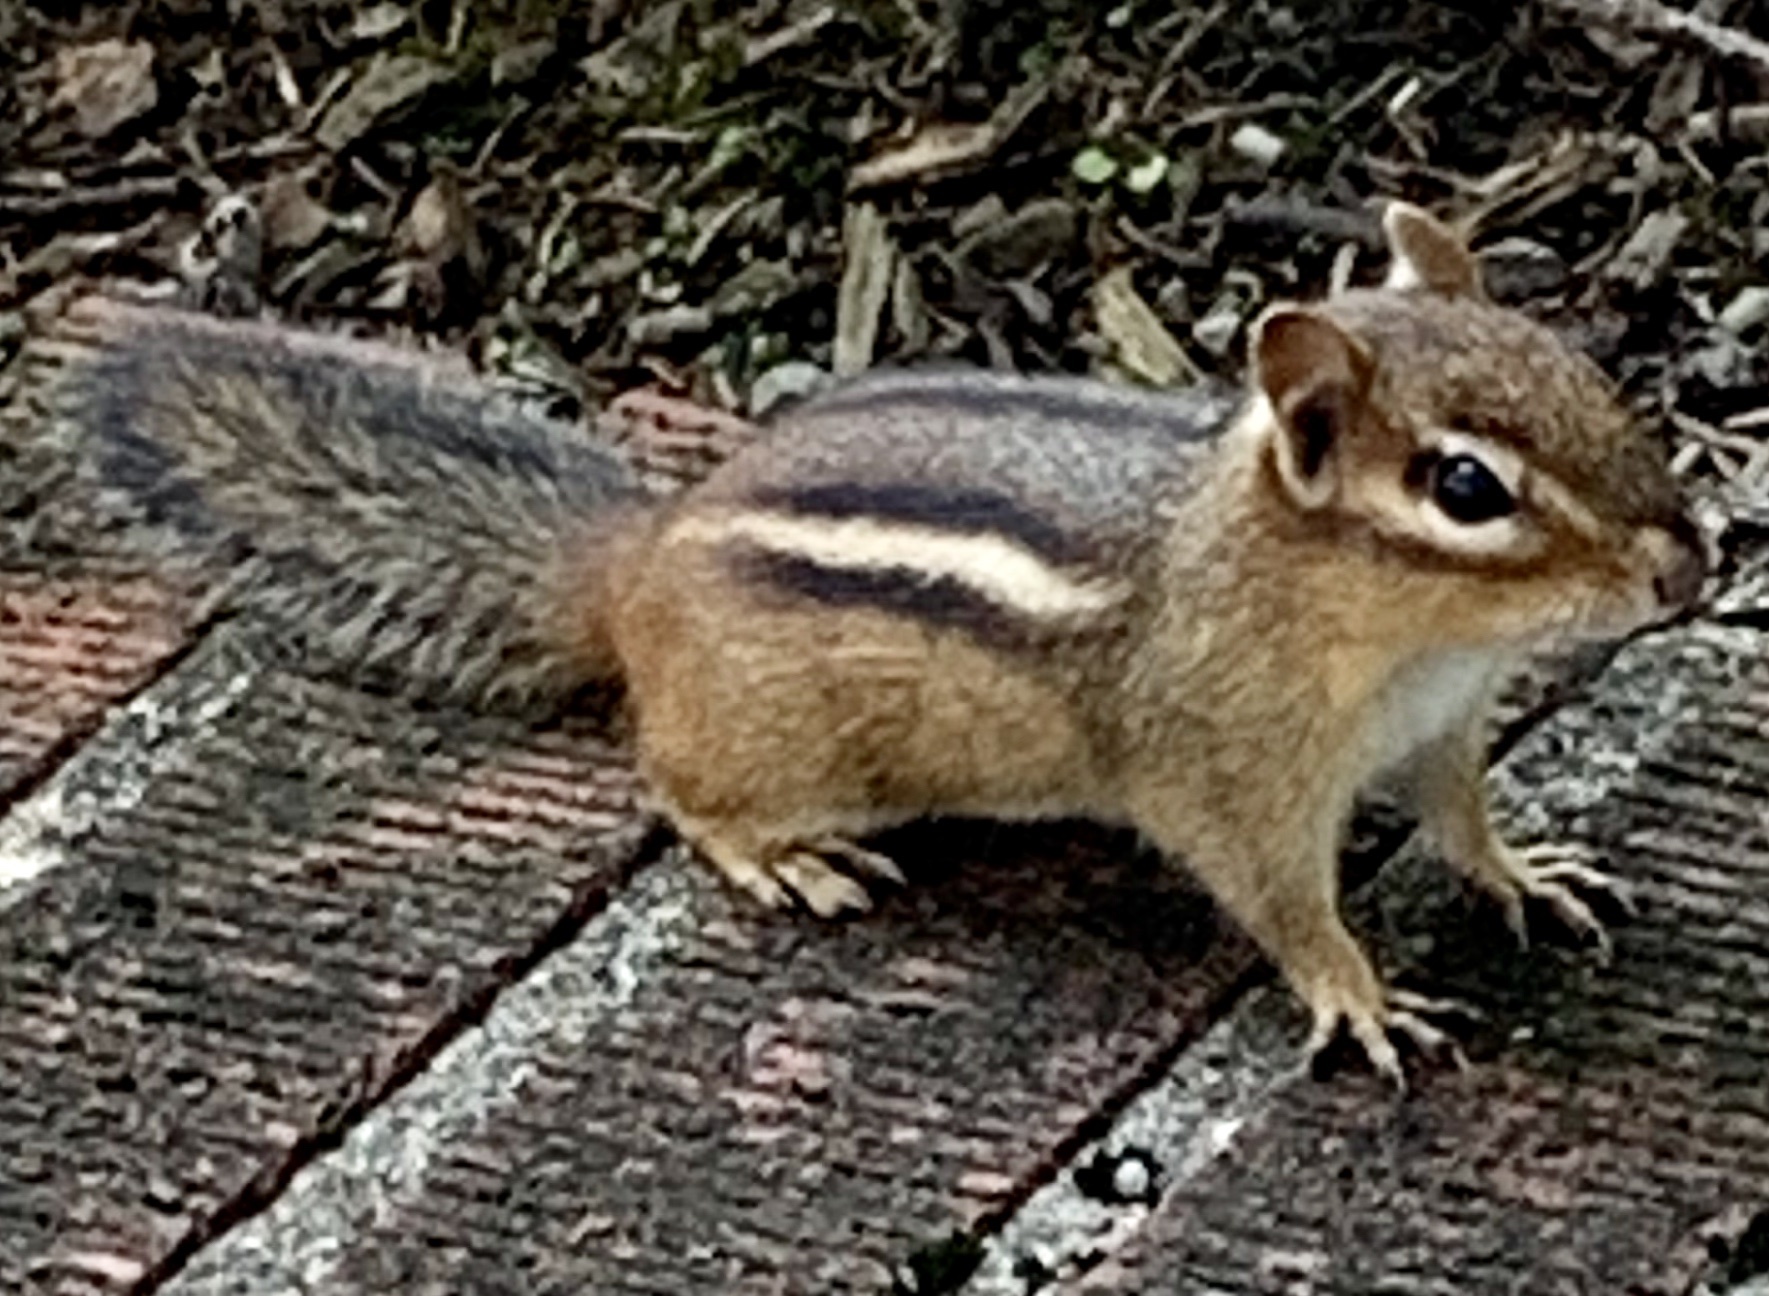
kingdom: Animalia
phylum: Chordata
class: Mammalia
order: Rodentia
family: Sciuridae
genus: Tamias
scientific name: Tamias striatus
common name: Eastern chipmunk
